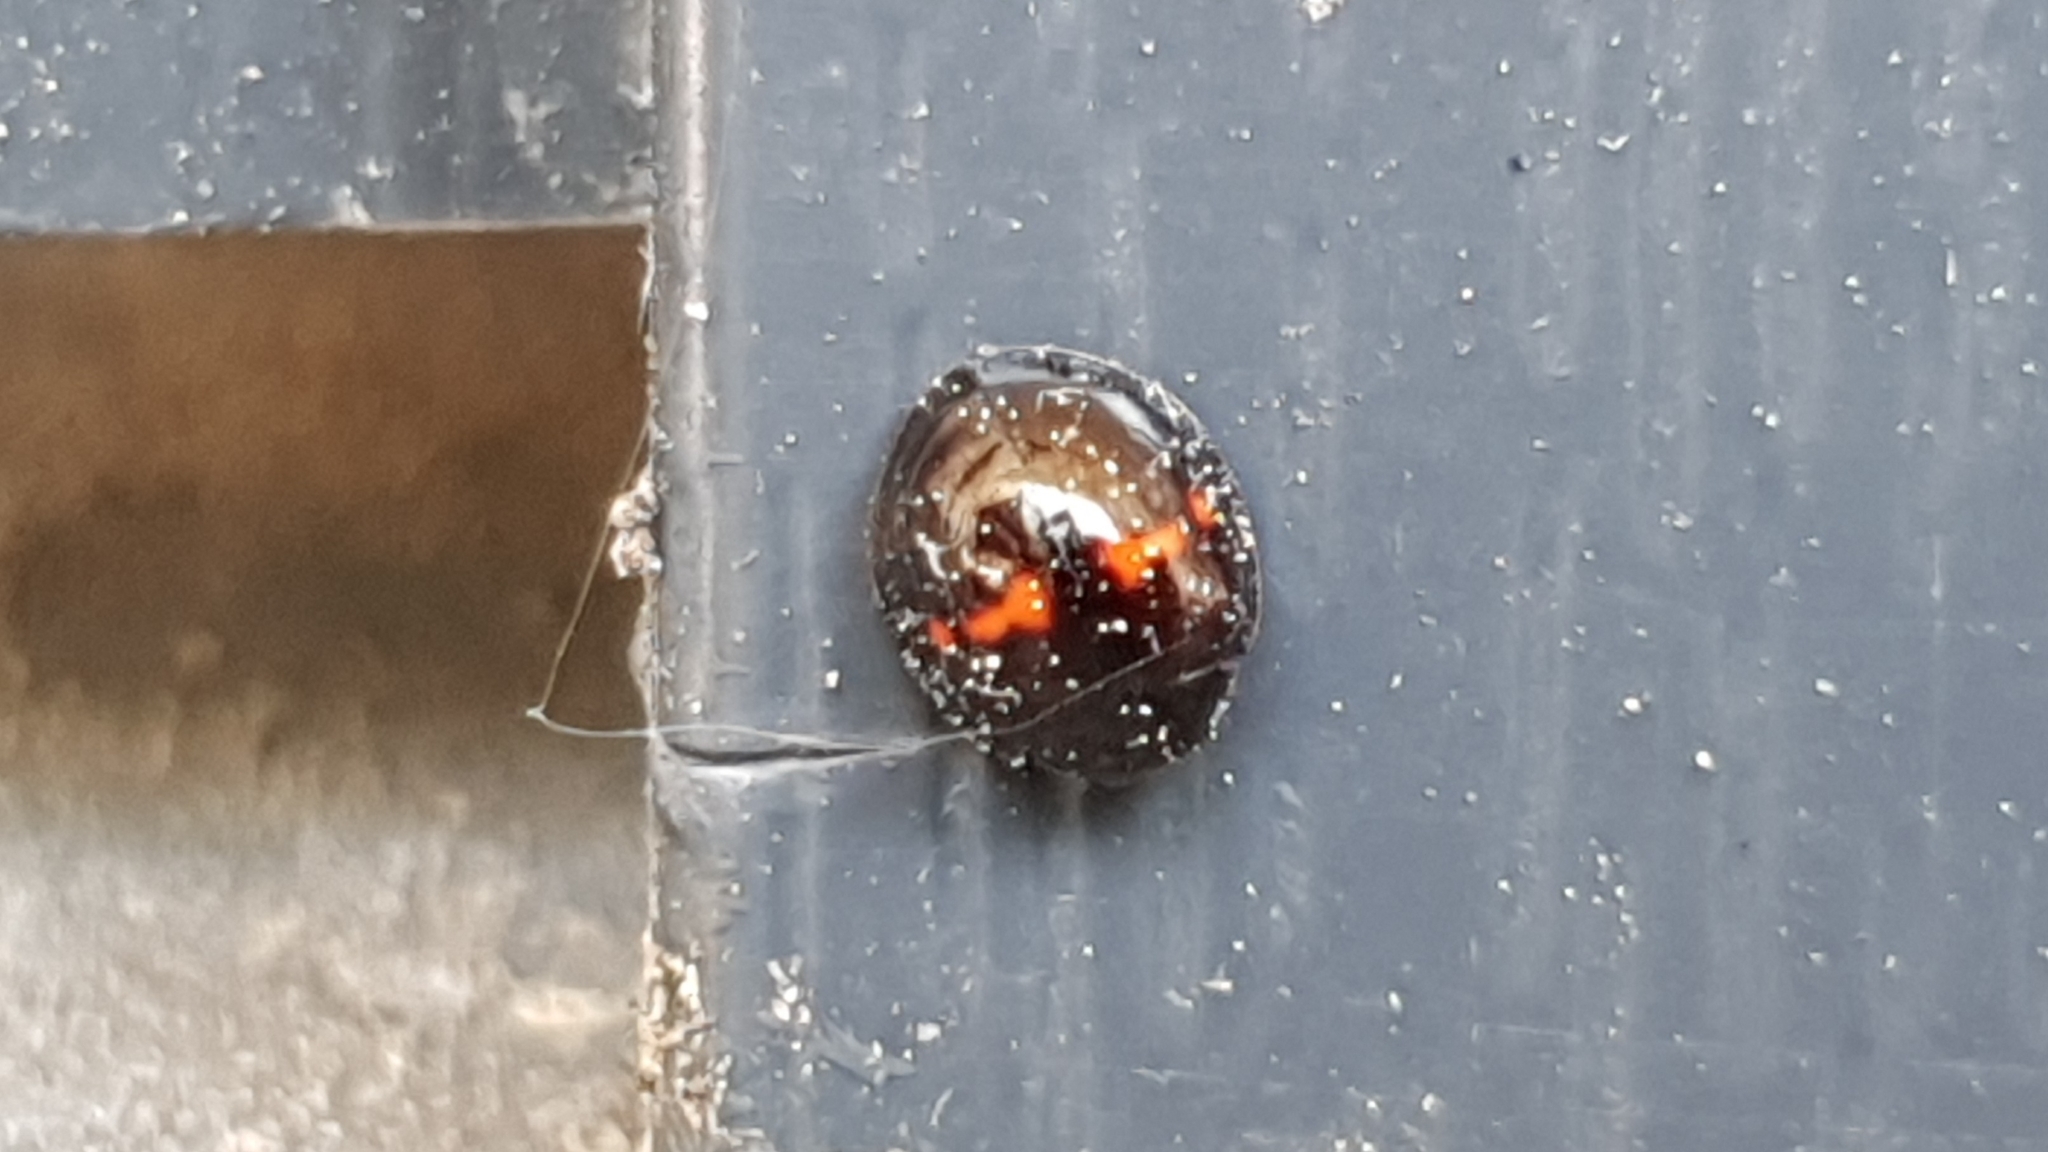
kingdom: Animalia
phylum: Arthropoda
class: Insecta
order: Coleoptera
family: Coccinellidae
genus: Chilocorus
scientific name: Chilocorus bipustulatus
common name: Heather ladybird
